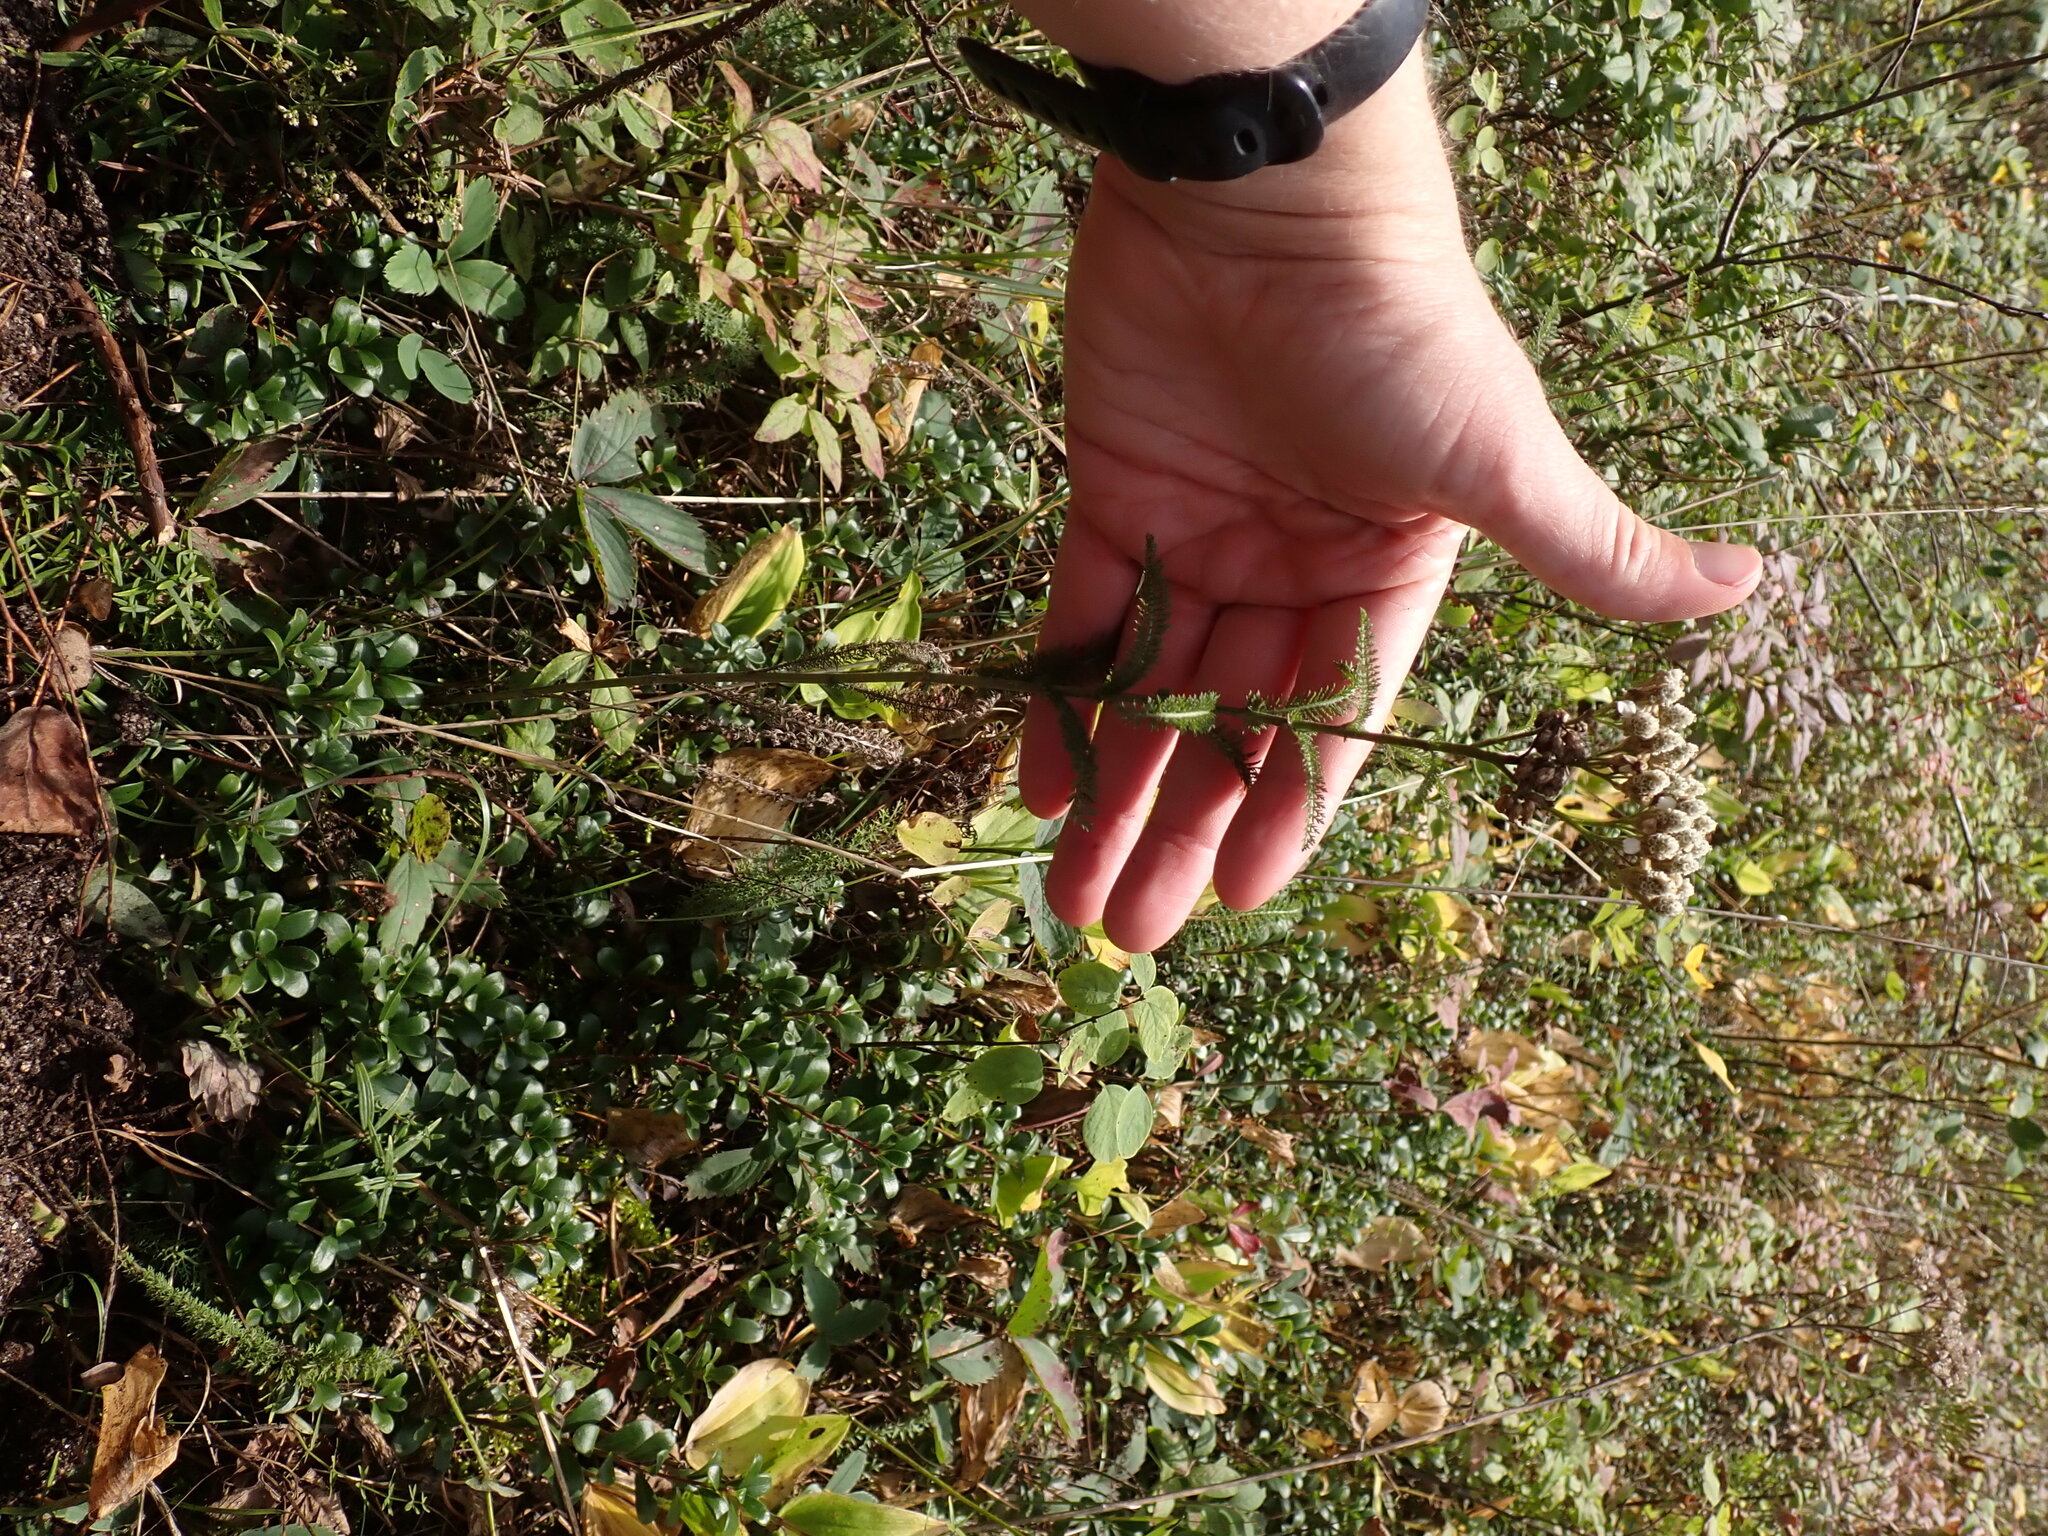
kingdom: Plantae
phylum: Tracheophyta
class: Magnoliopsida
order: Asterales
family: Asteraceae
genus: Achillea
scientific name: Achillea millefolium
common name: Yarrow
